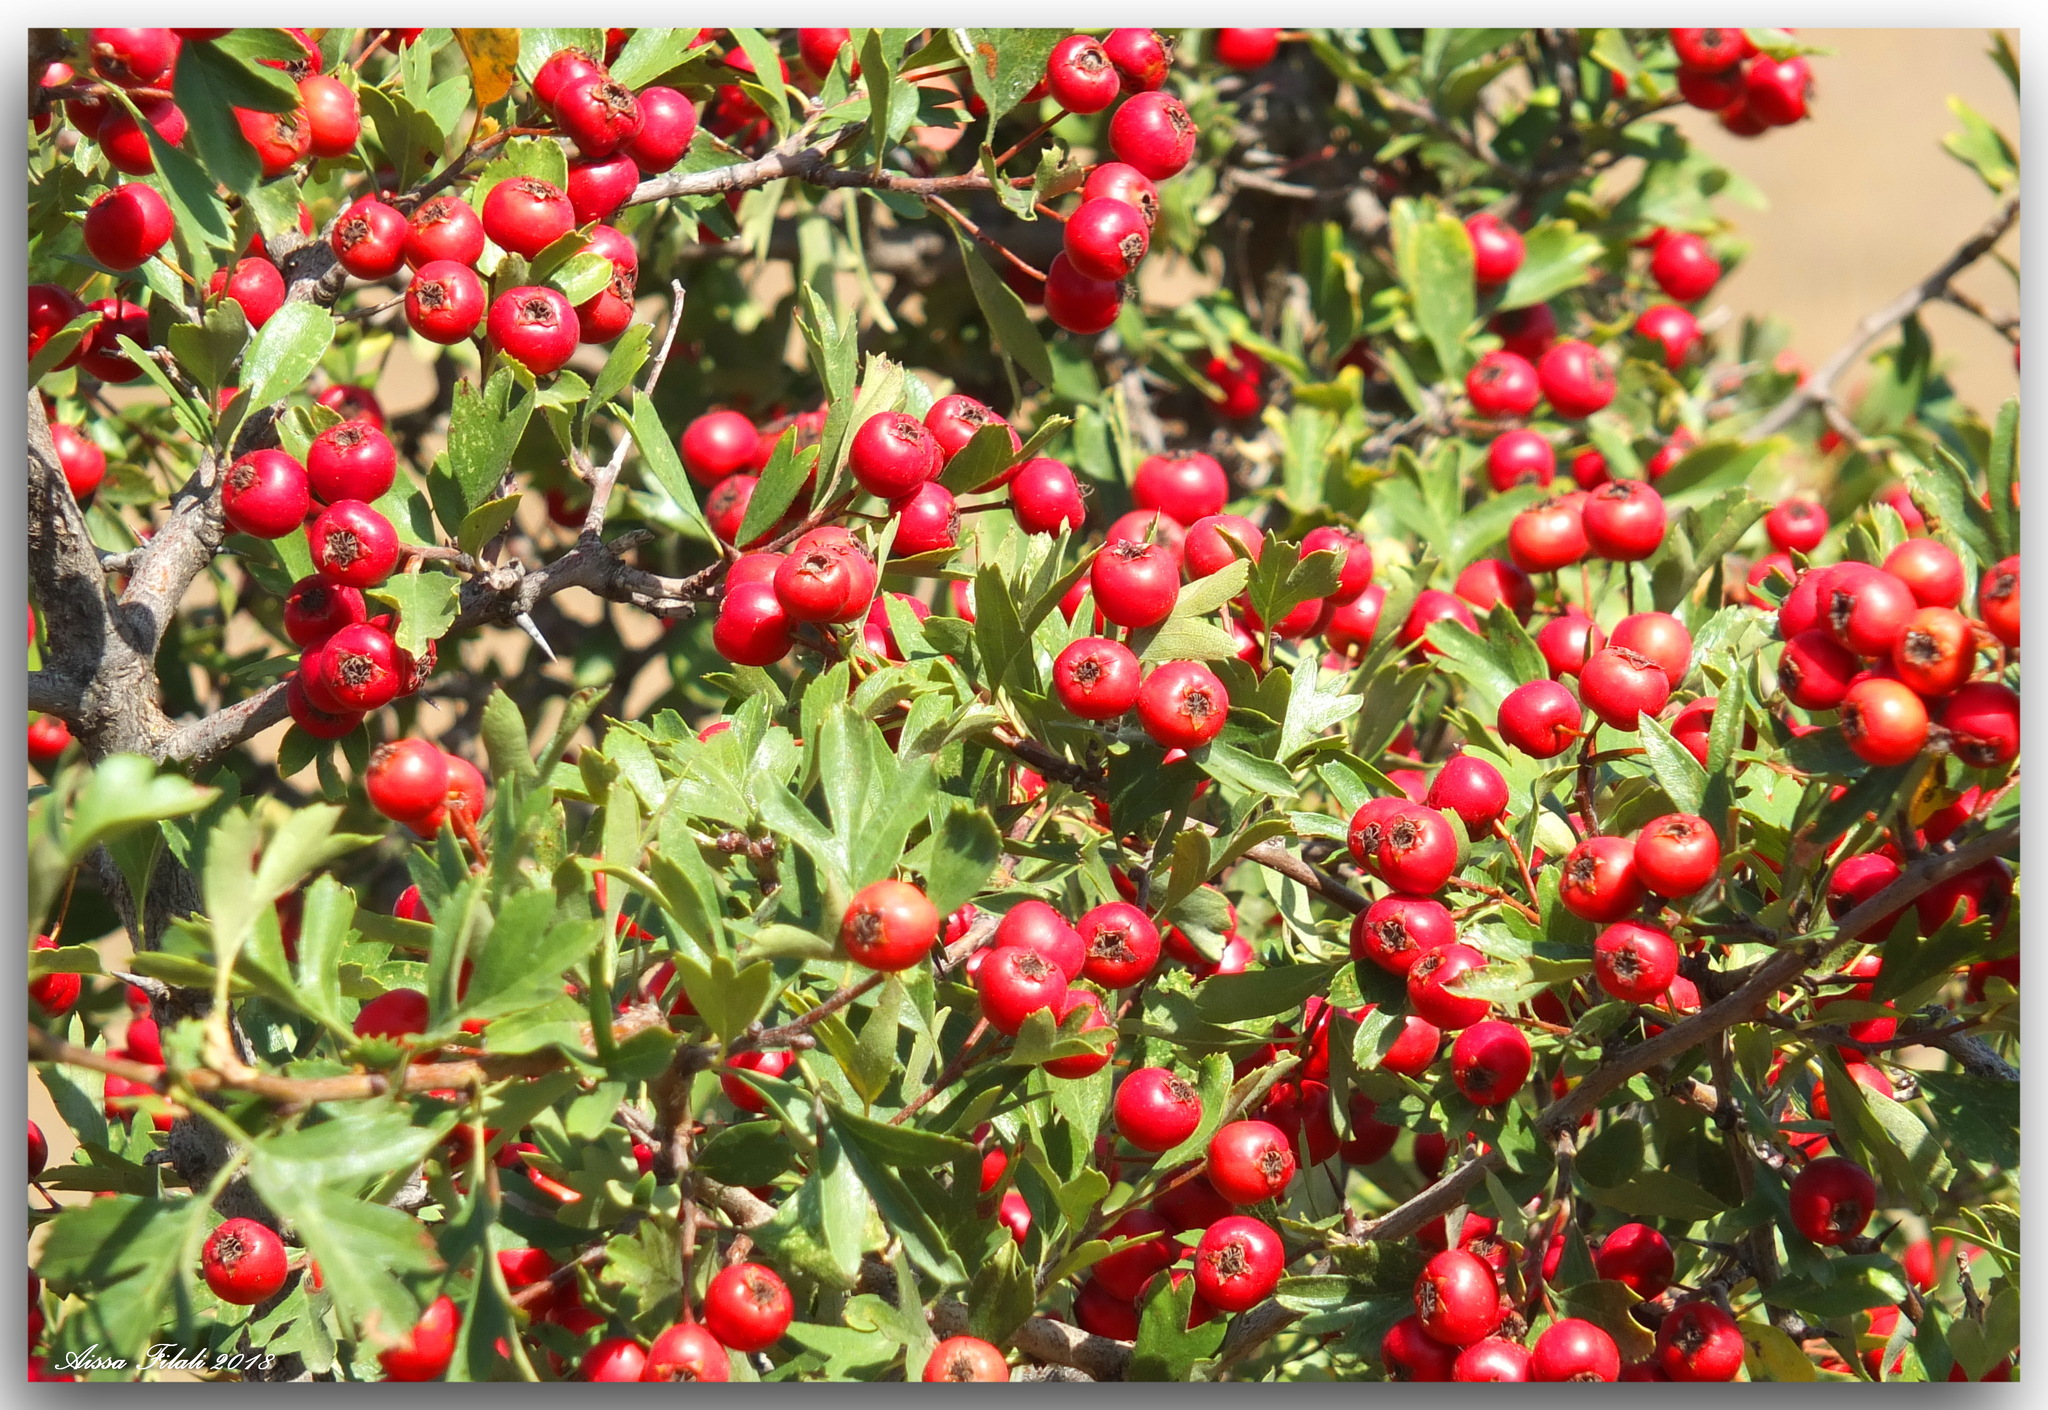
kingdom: Plantae
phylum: Tracheophyta
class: Magnoliopsida
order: Rosales
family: Rosaceae
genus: Crataegus
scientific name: Crataegus monogyna
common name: Hawthorn
